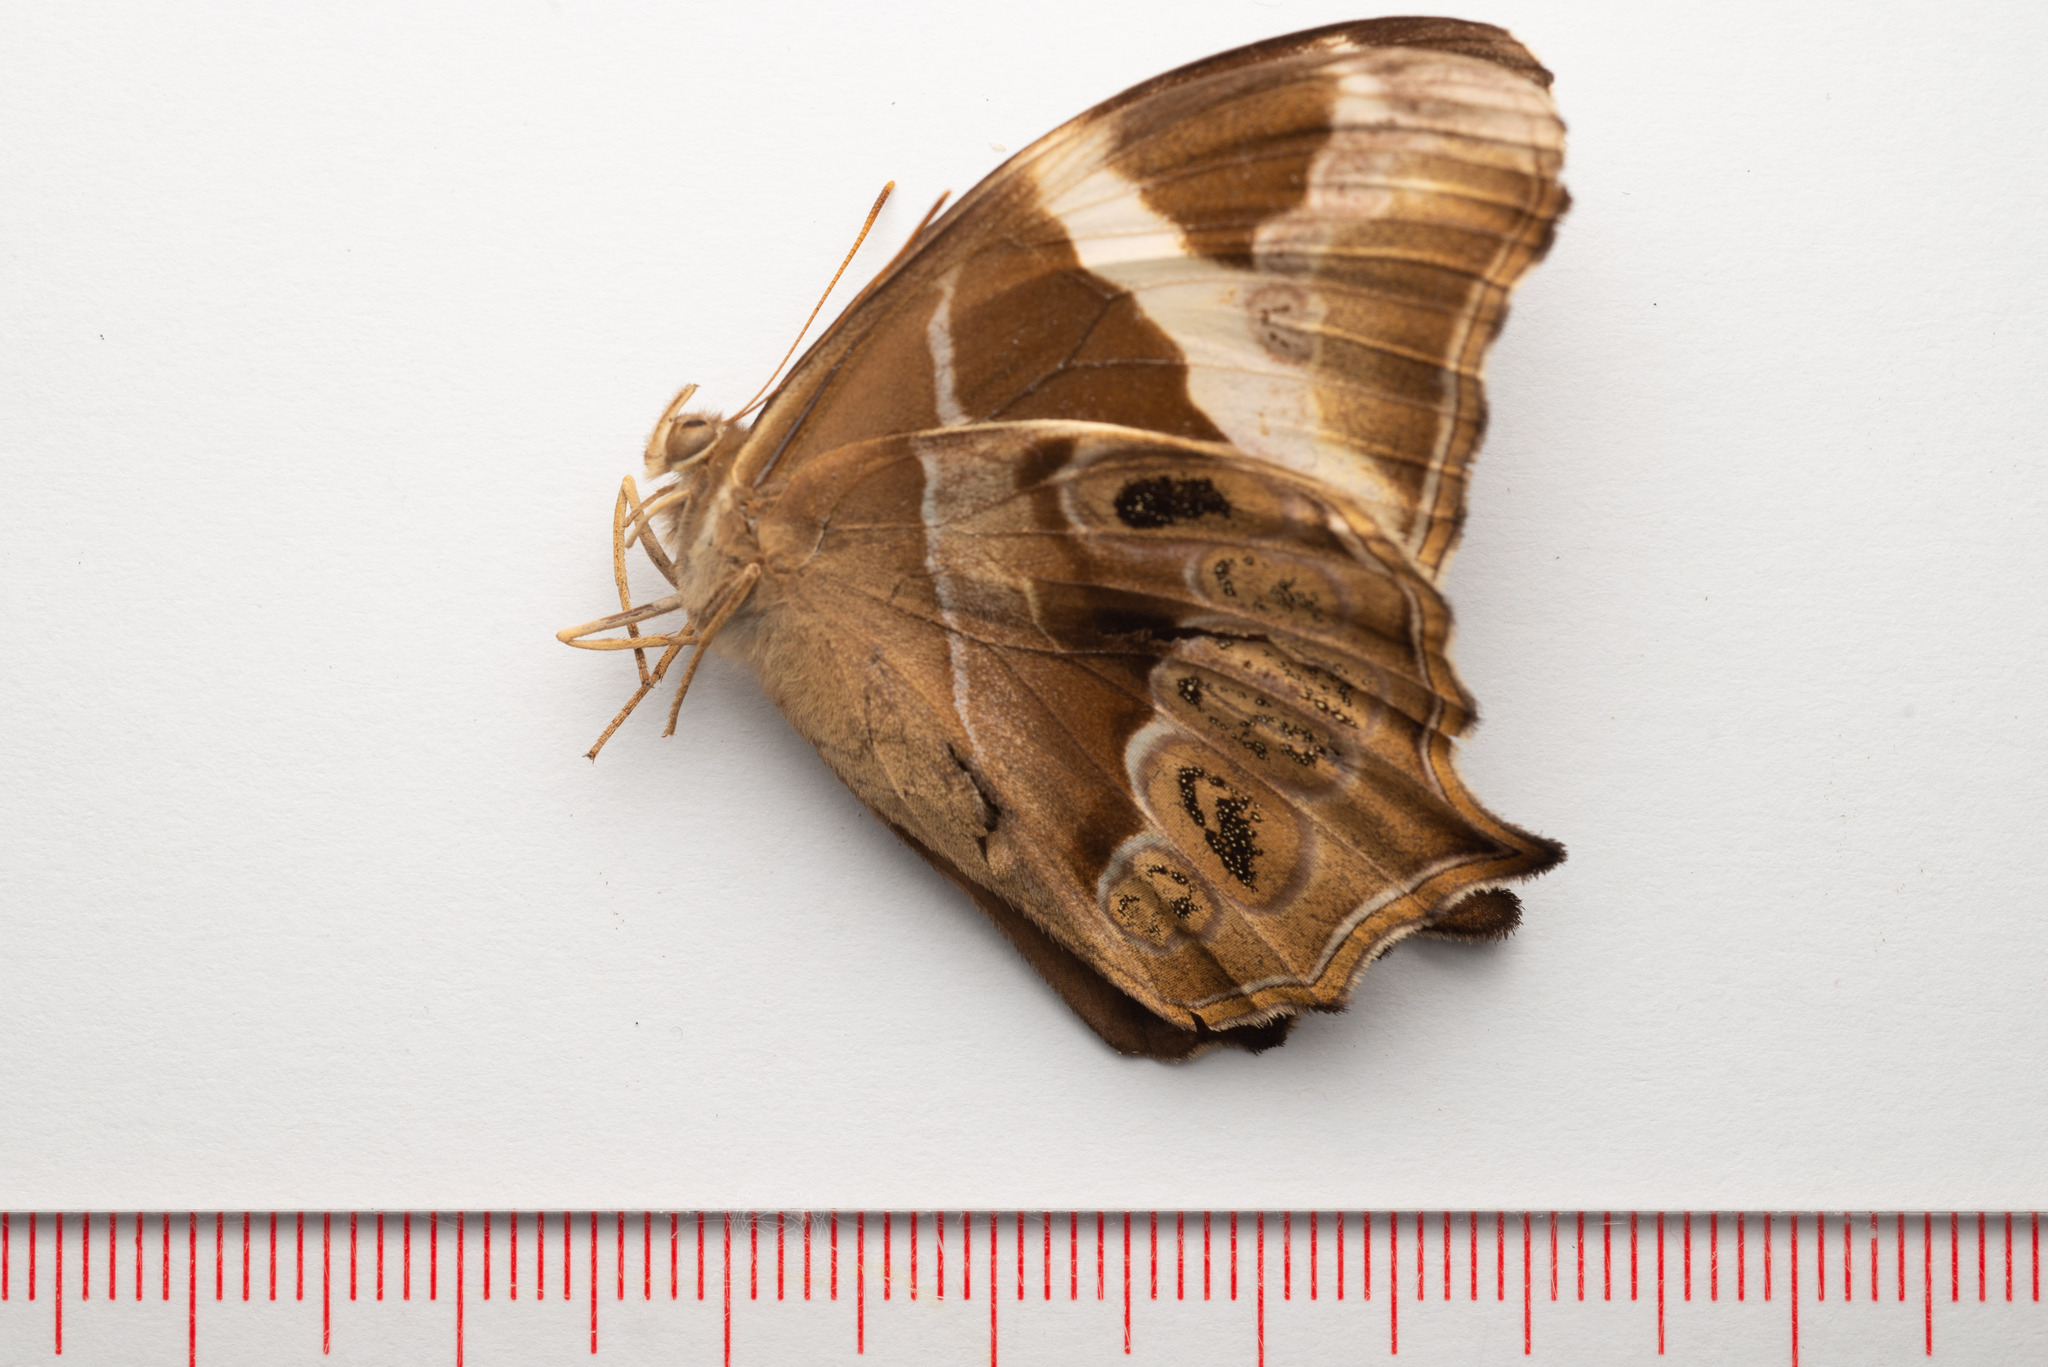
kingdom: Animalia
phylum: Arthropoda
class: Insecta
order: Lepidoptera
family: Nymphalidae
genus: Lethe
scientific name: Lethe europa
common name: Bamboo treebrown
